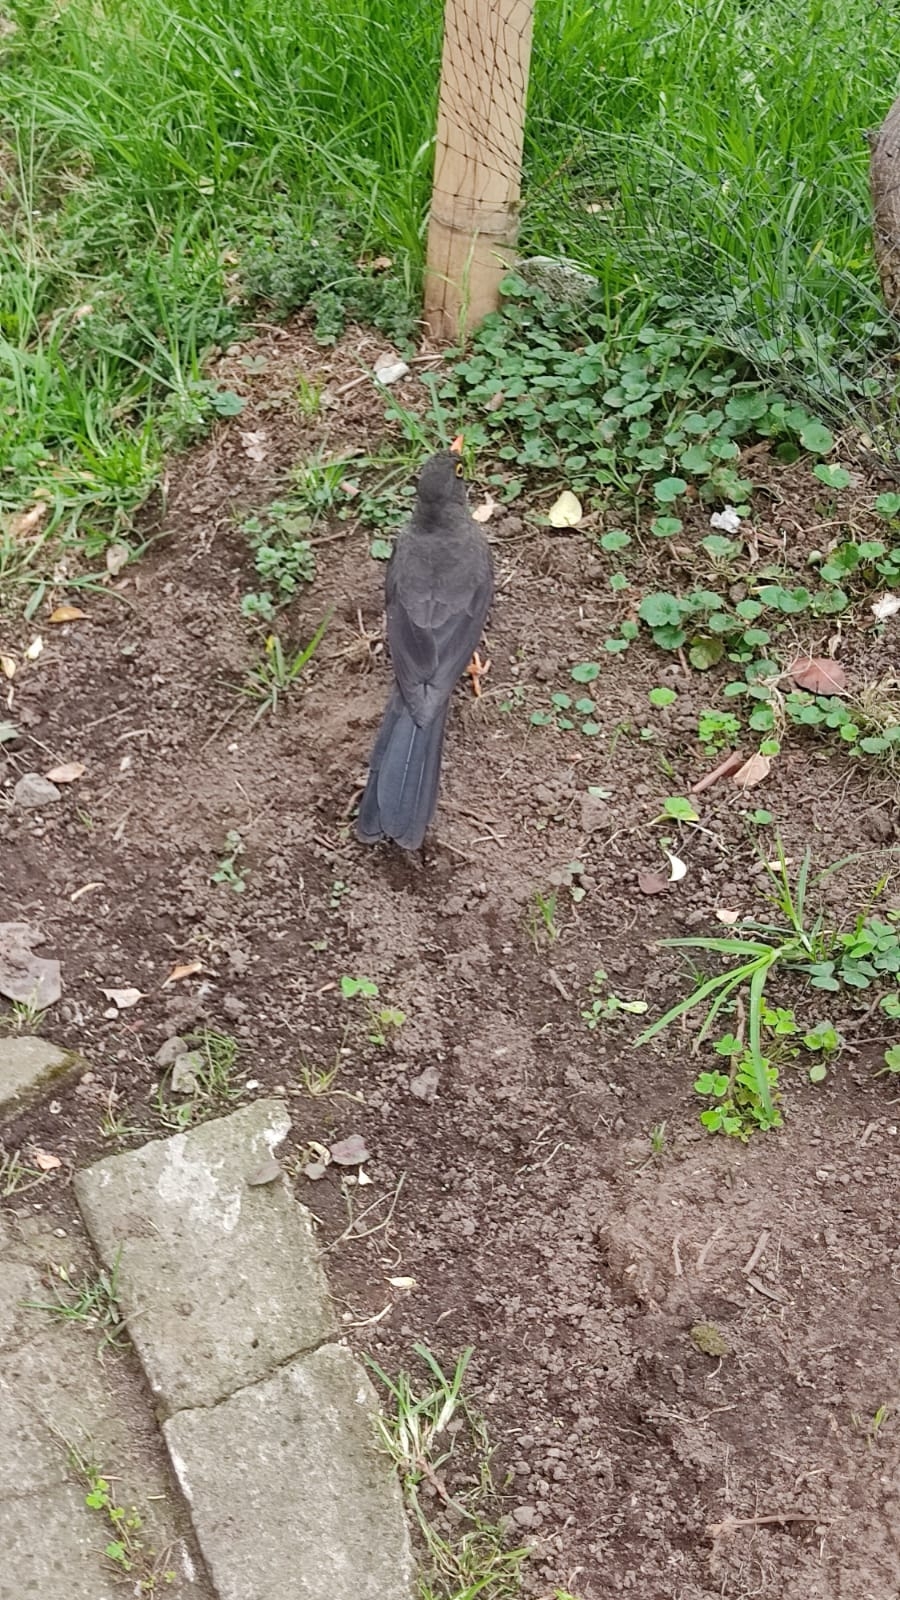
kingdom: Animalia
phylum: Chordata
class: Aves
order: Passeriformes
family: Turdidae
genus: Turdus
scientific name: Turdus fuscater
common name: Great thrush
